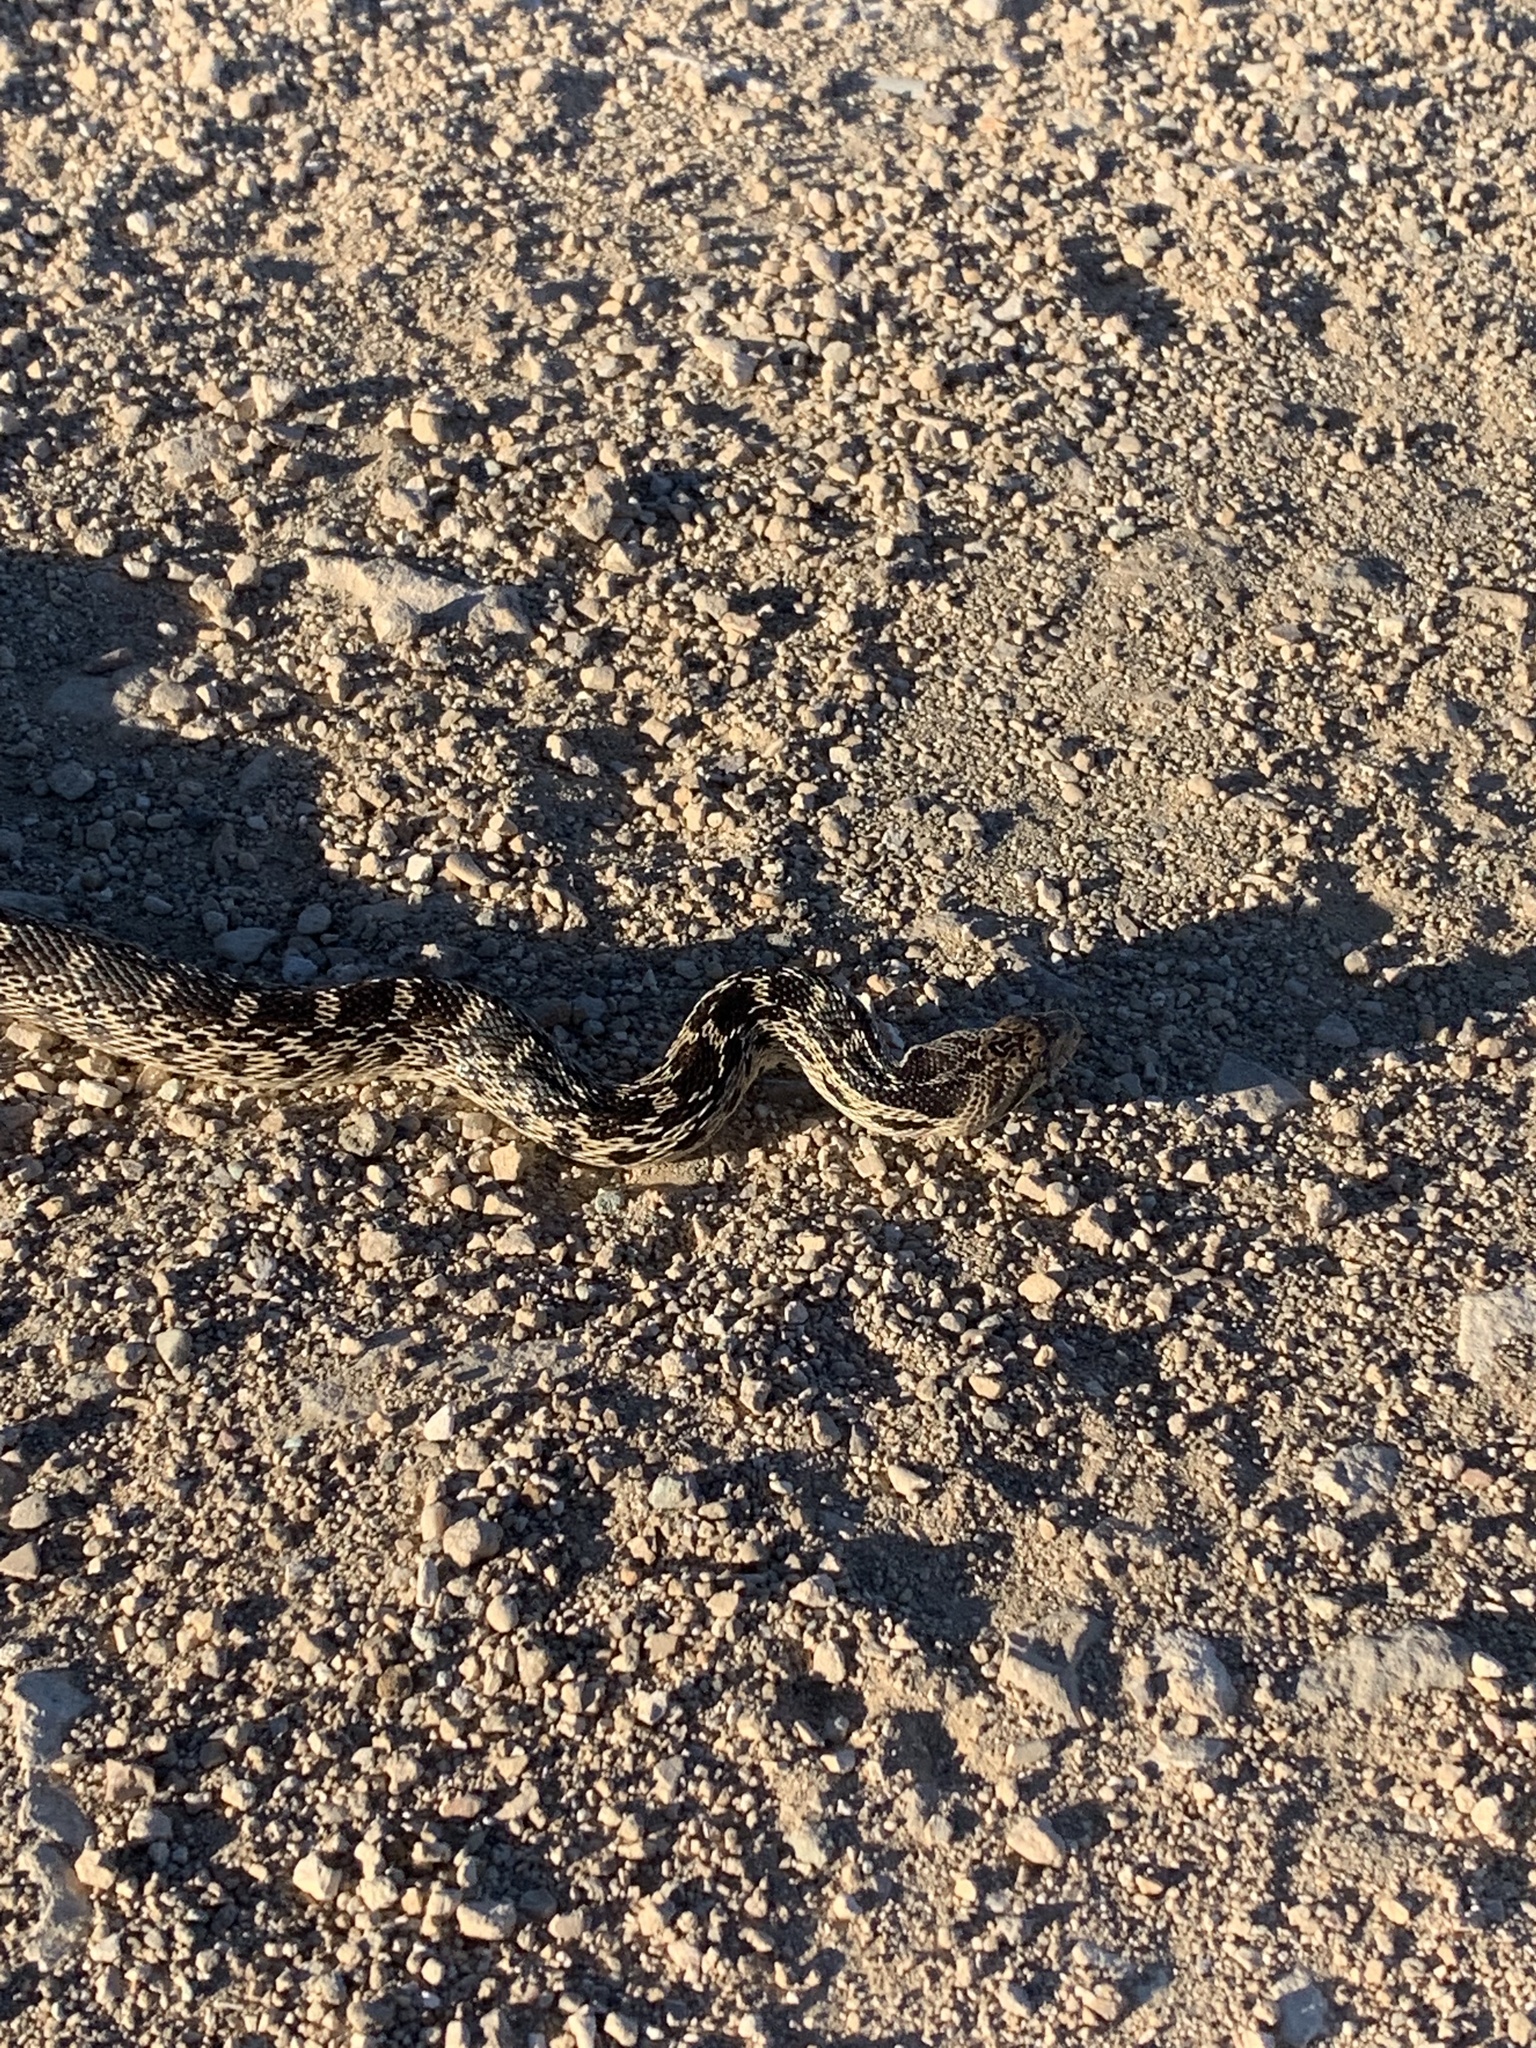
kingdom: Animalia
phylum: Chordata
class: Squamata
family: Colubridae
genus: Pituophis
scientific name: Pituophis catenifer
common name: Gopher snake
